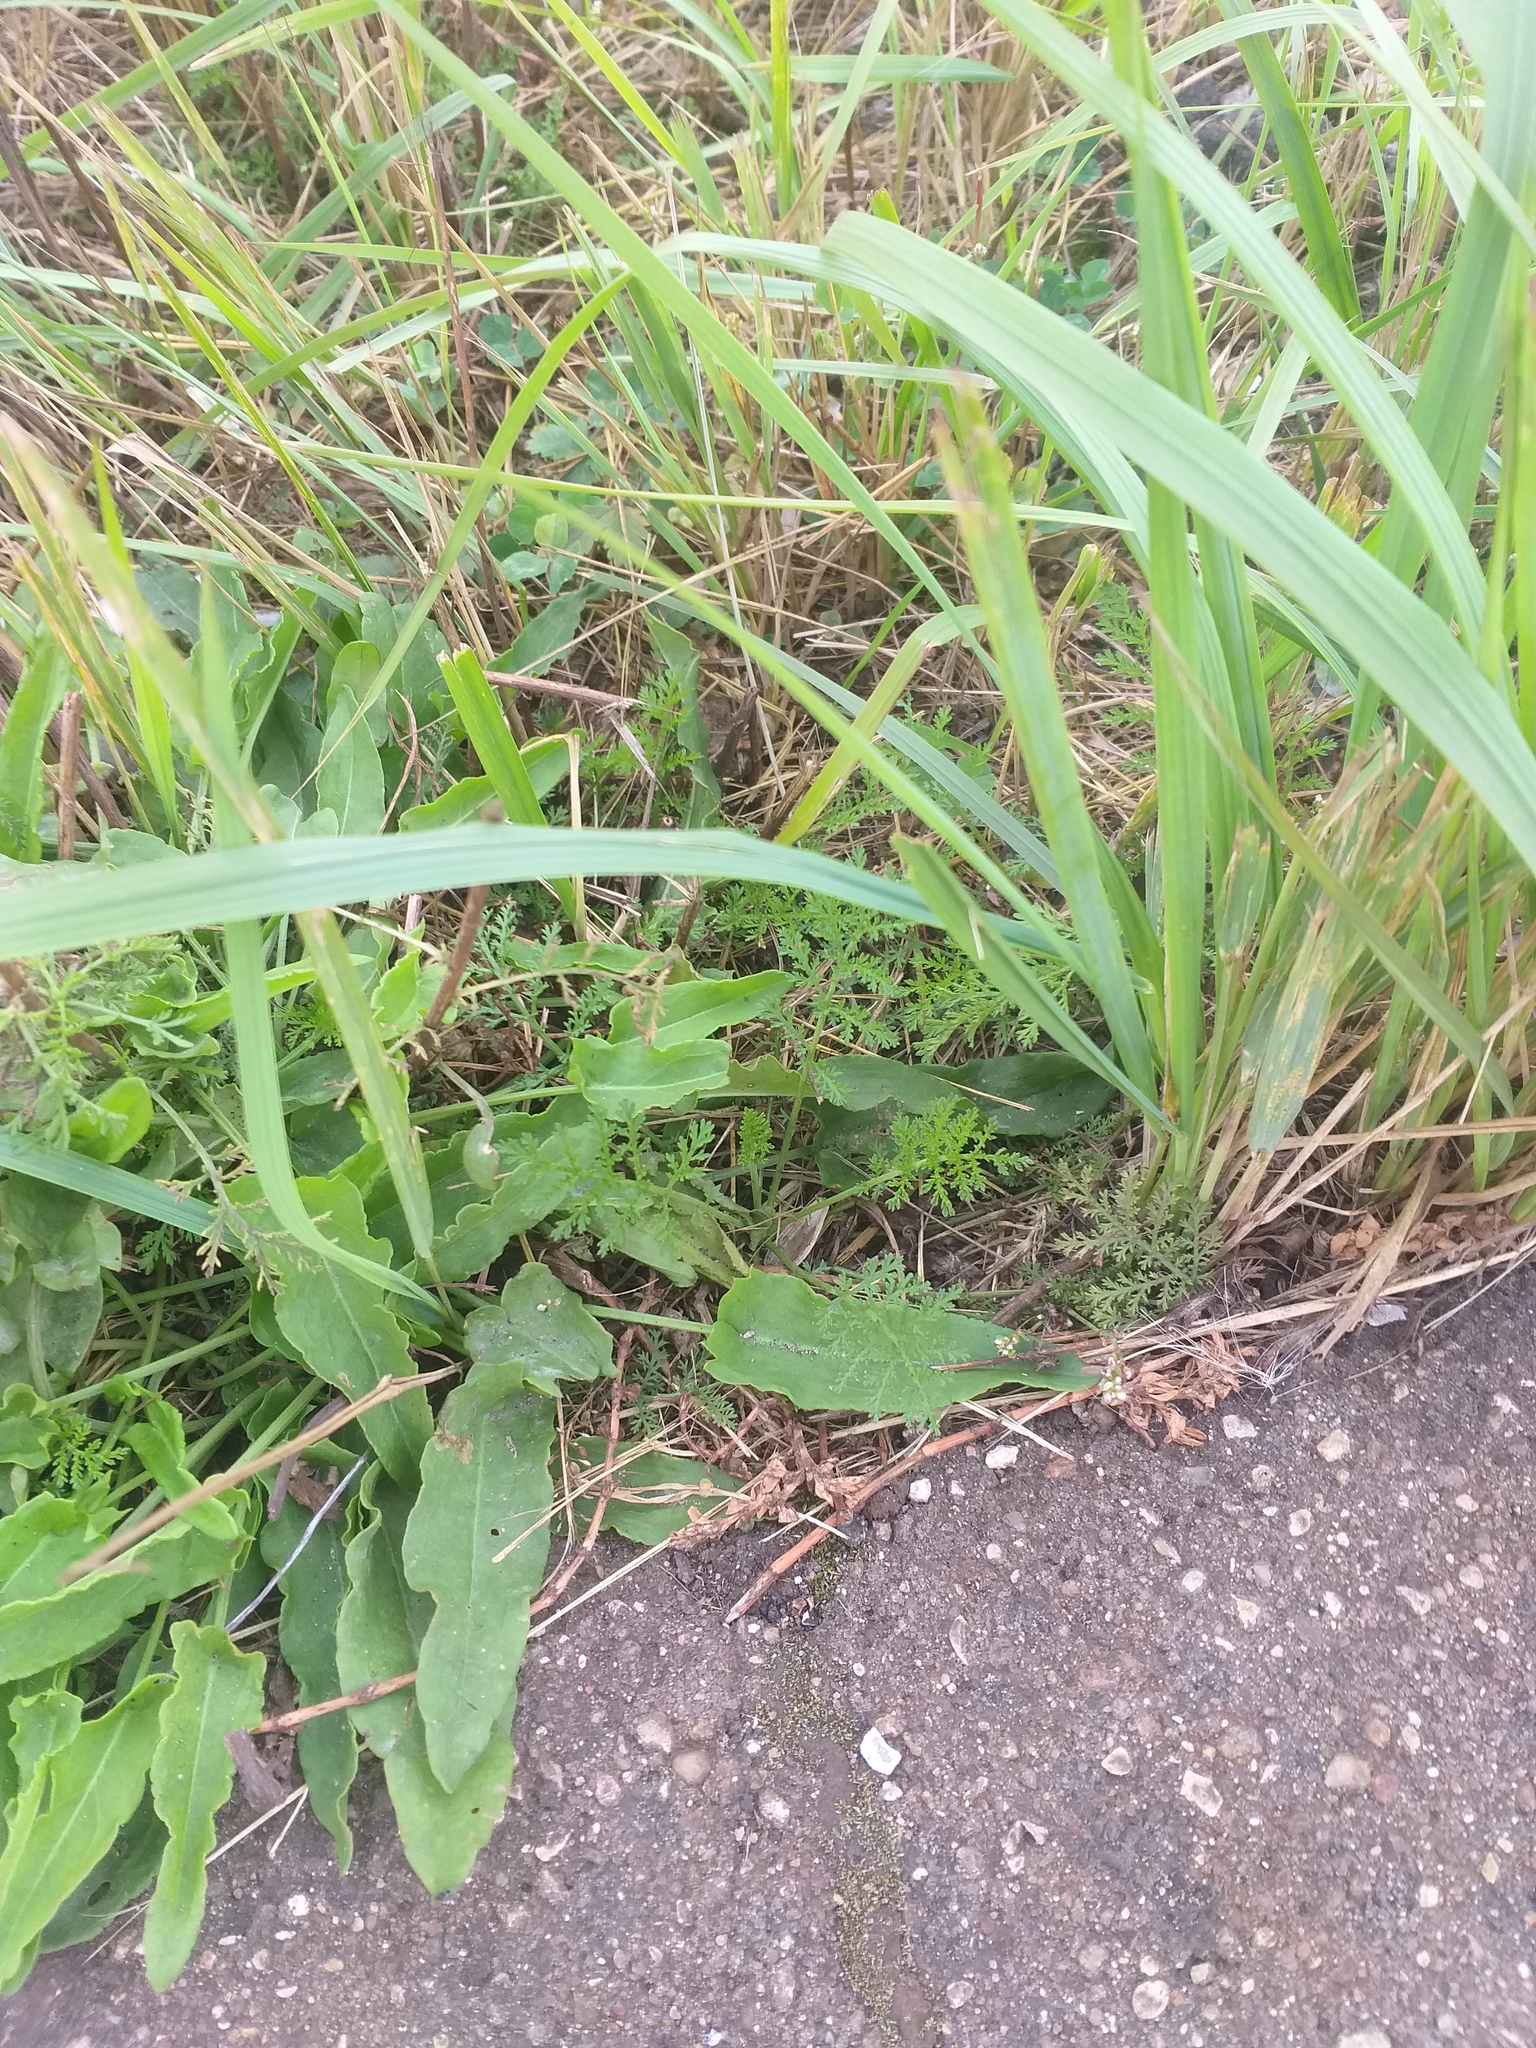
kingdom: Plantae
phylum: Tracheophyta
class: Magnoliopsida
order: Asterales
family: Asteraceae
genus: Achillea
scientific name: Achillea nobilis
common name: Noble yarrow
